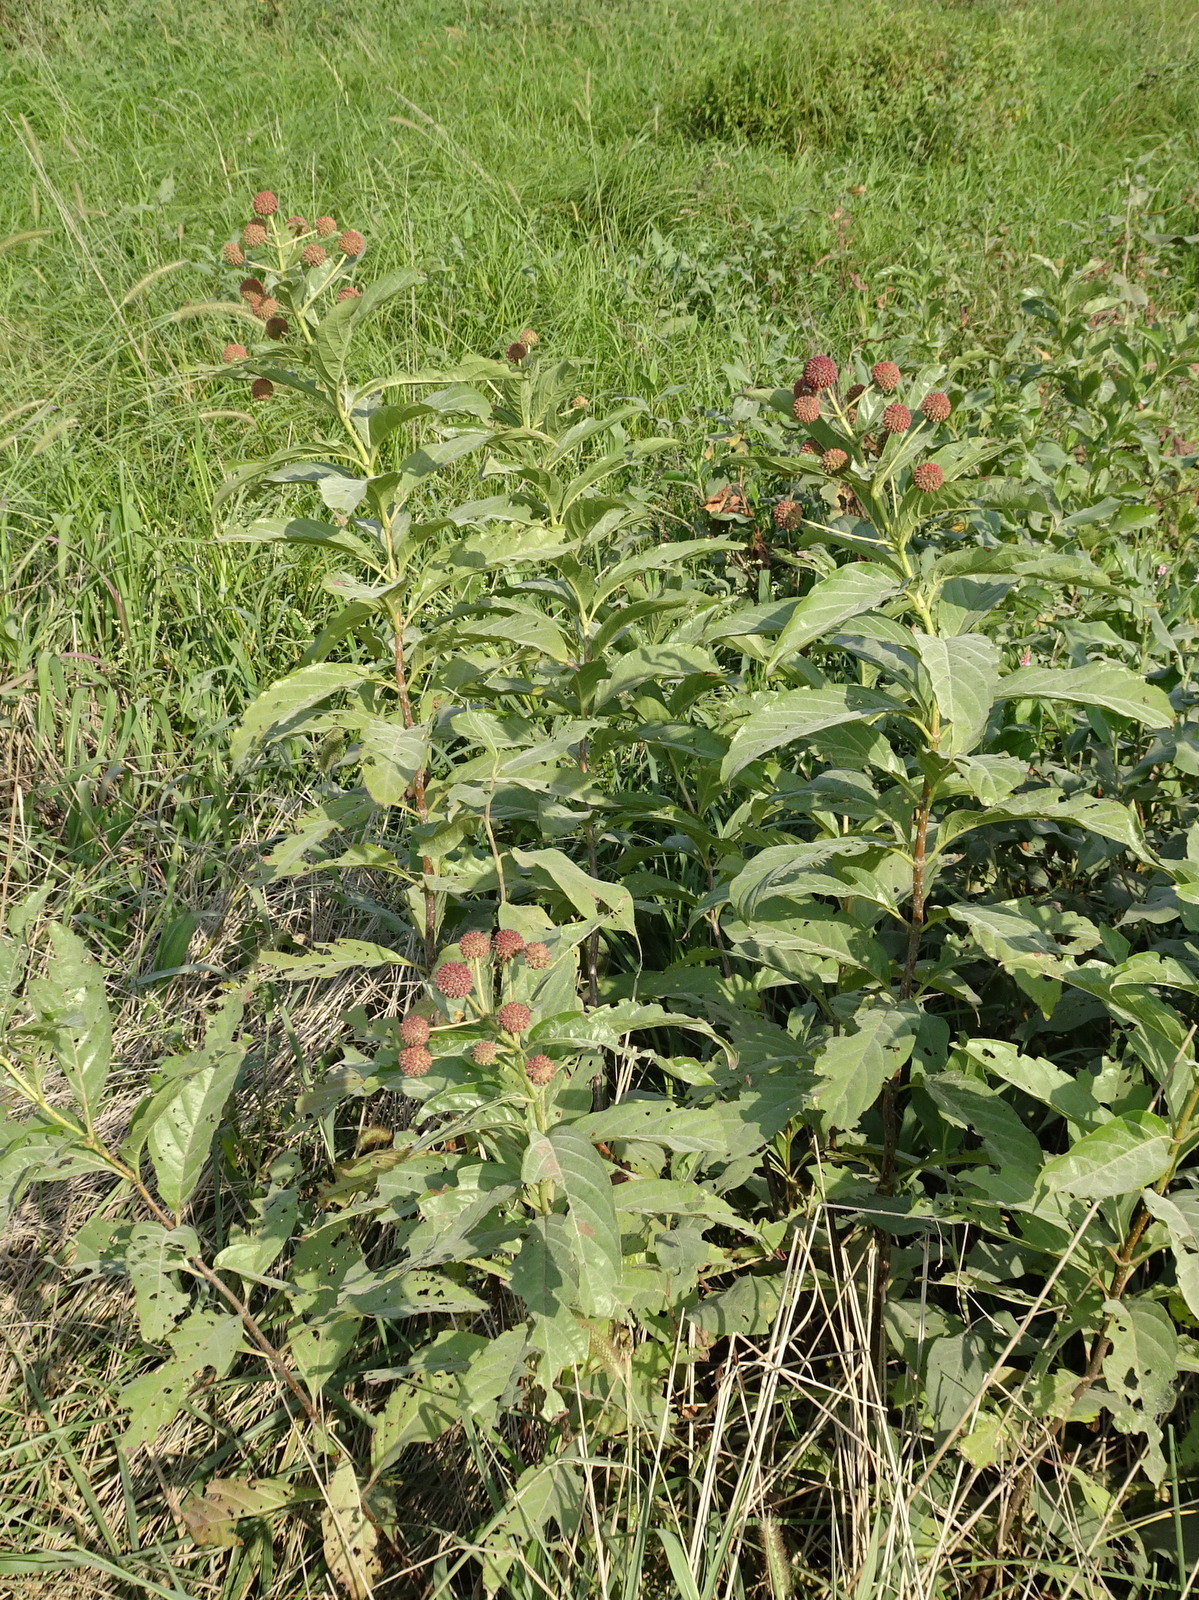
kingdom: Plantae
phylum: Tracheophyta
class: Magnoliopsida
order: Gentianales
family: Rubiaceae
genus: Cephalanthus
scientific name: Cephalanthus occidentalis
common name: Button-willow
